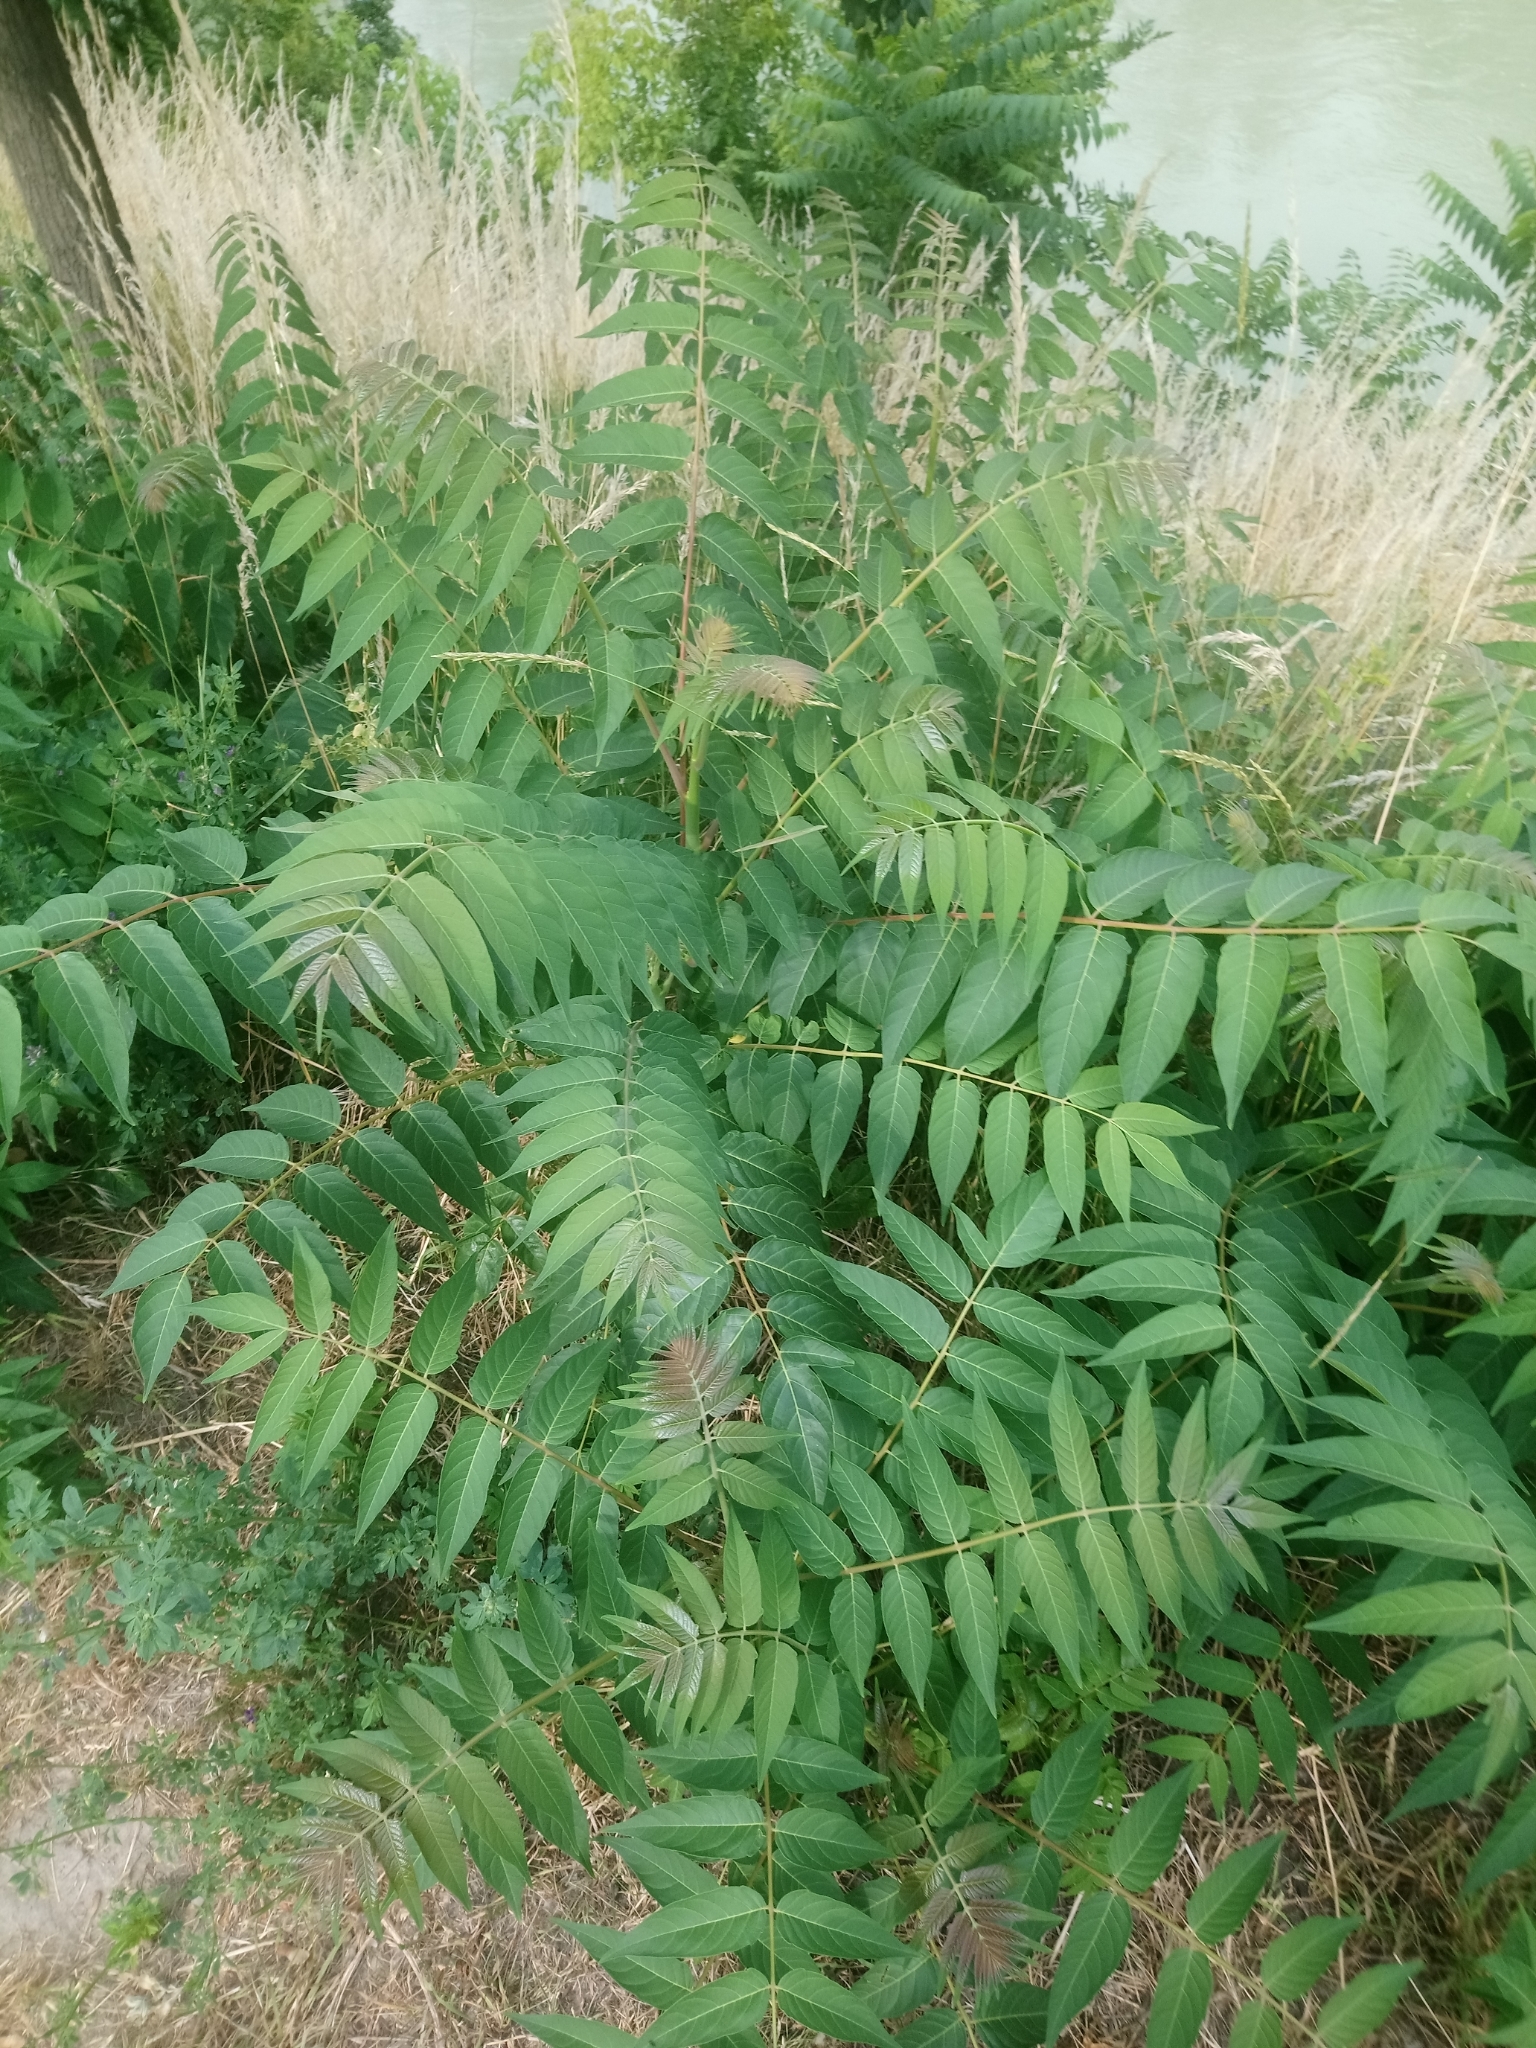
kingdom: Plantae
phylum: Tracheophyta
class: Magnoliopsida
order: Sapindales
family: Simaroubaceae
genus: Ailanthus
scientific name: Ailanthus altissima
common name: Tree-of-heaven
